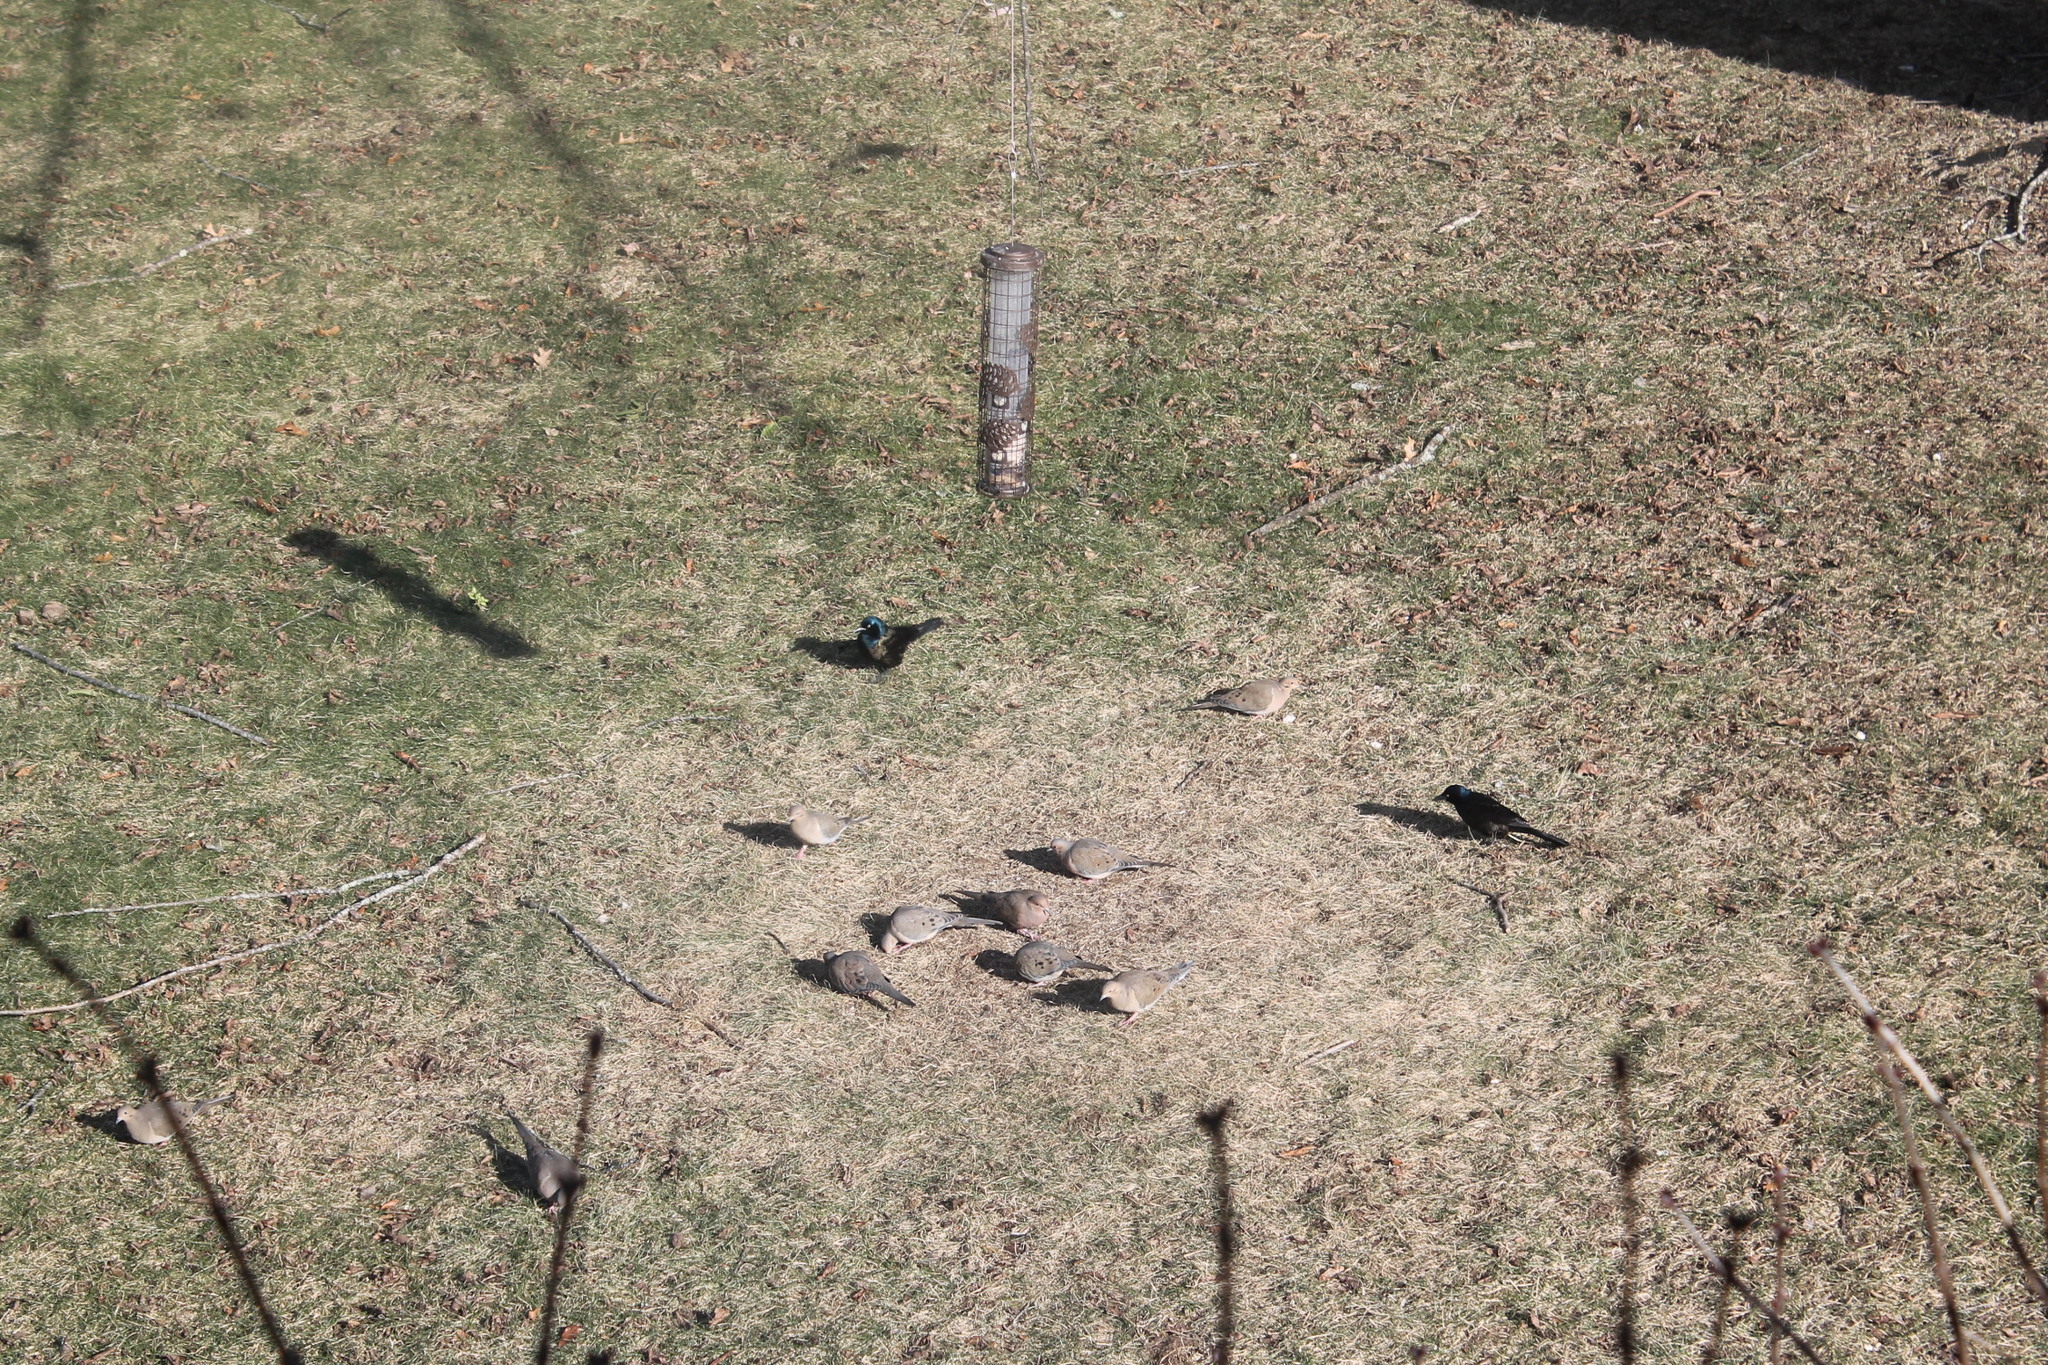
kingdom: Animalia
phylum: Chordata
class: Aves
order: Passeriformes
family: Icteridae
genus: Quiscalus
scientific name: Quiscalus quiscula
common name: Common grackle
